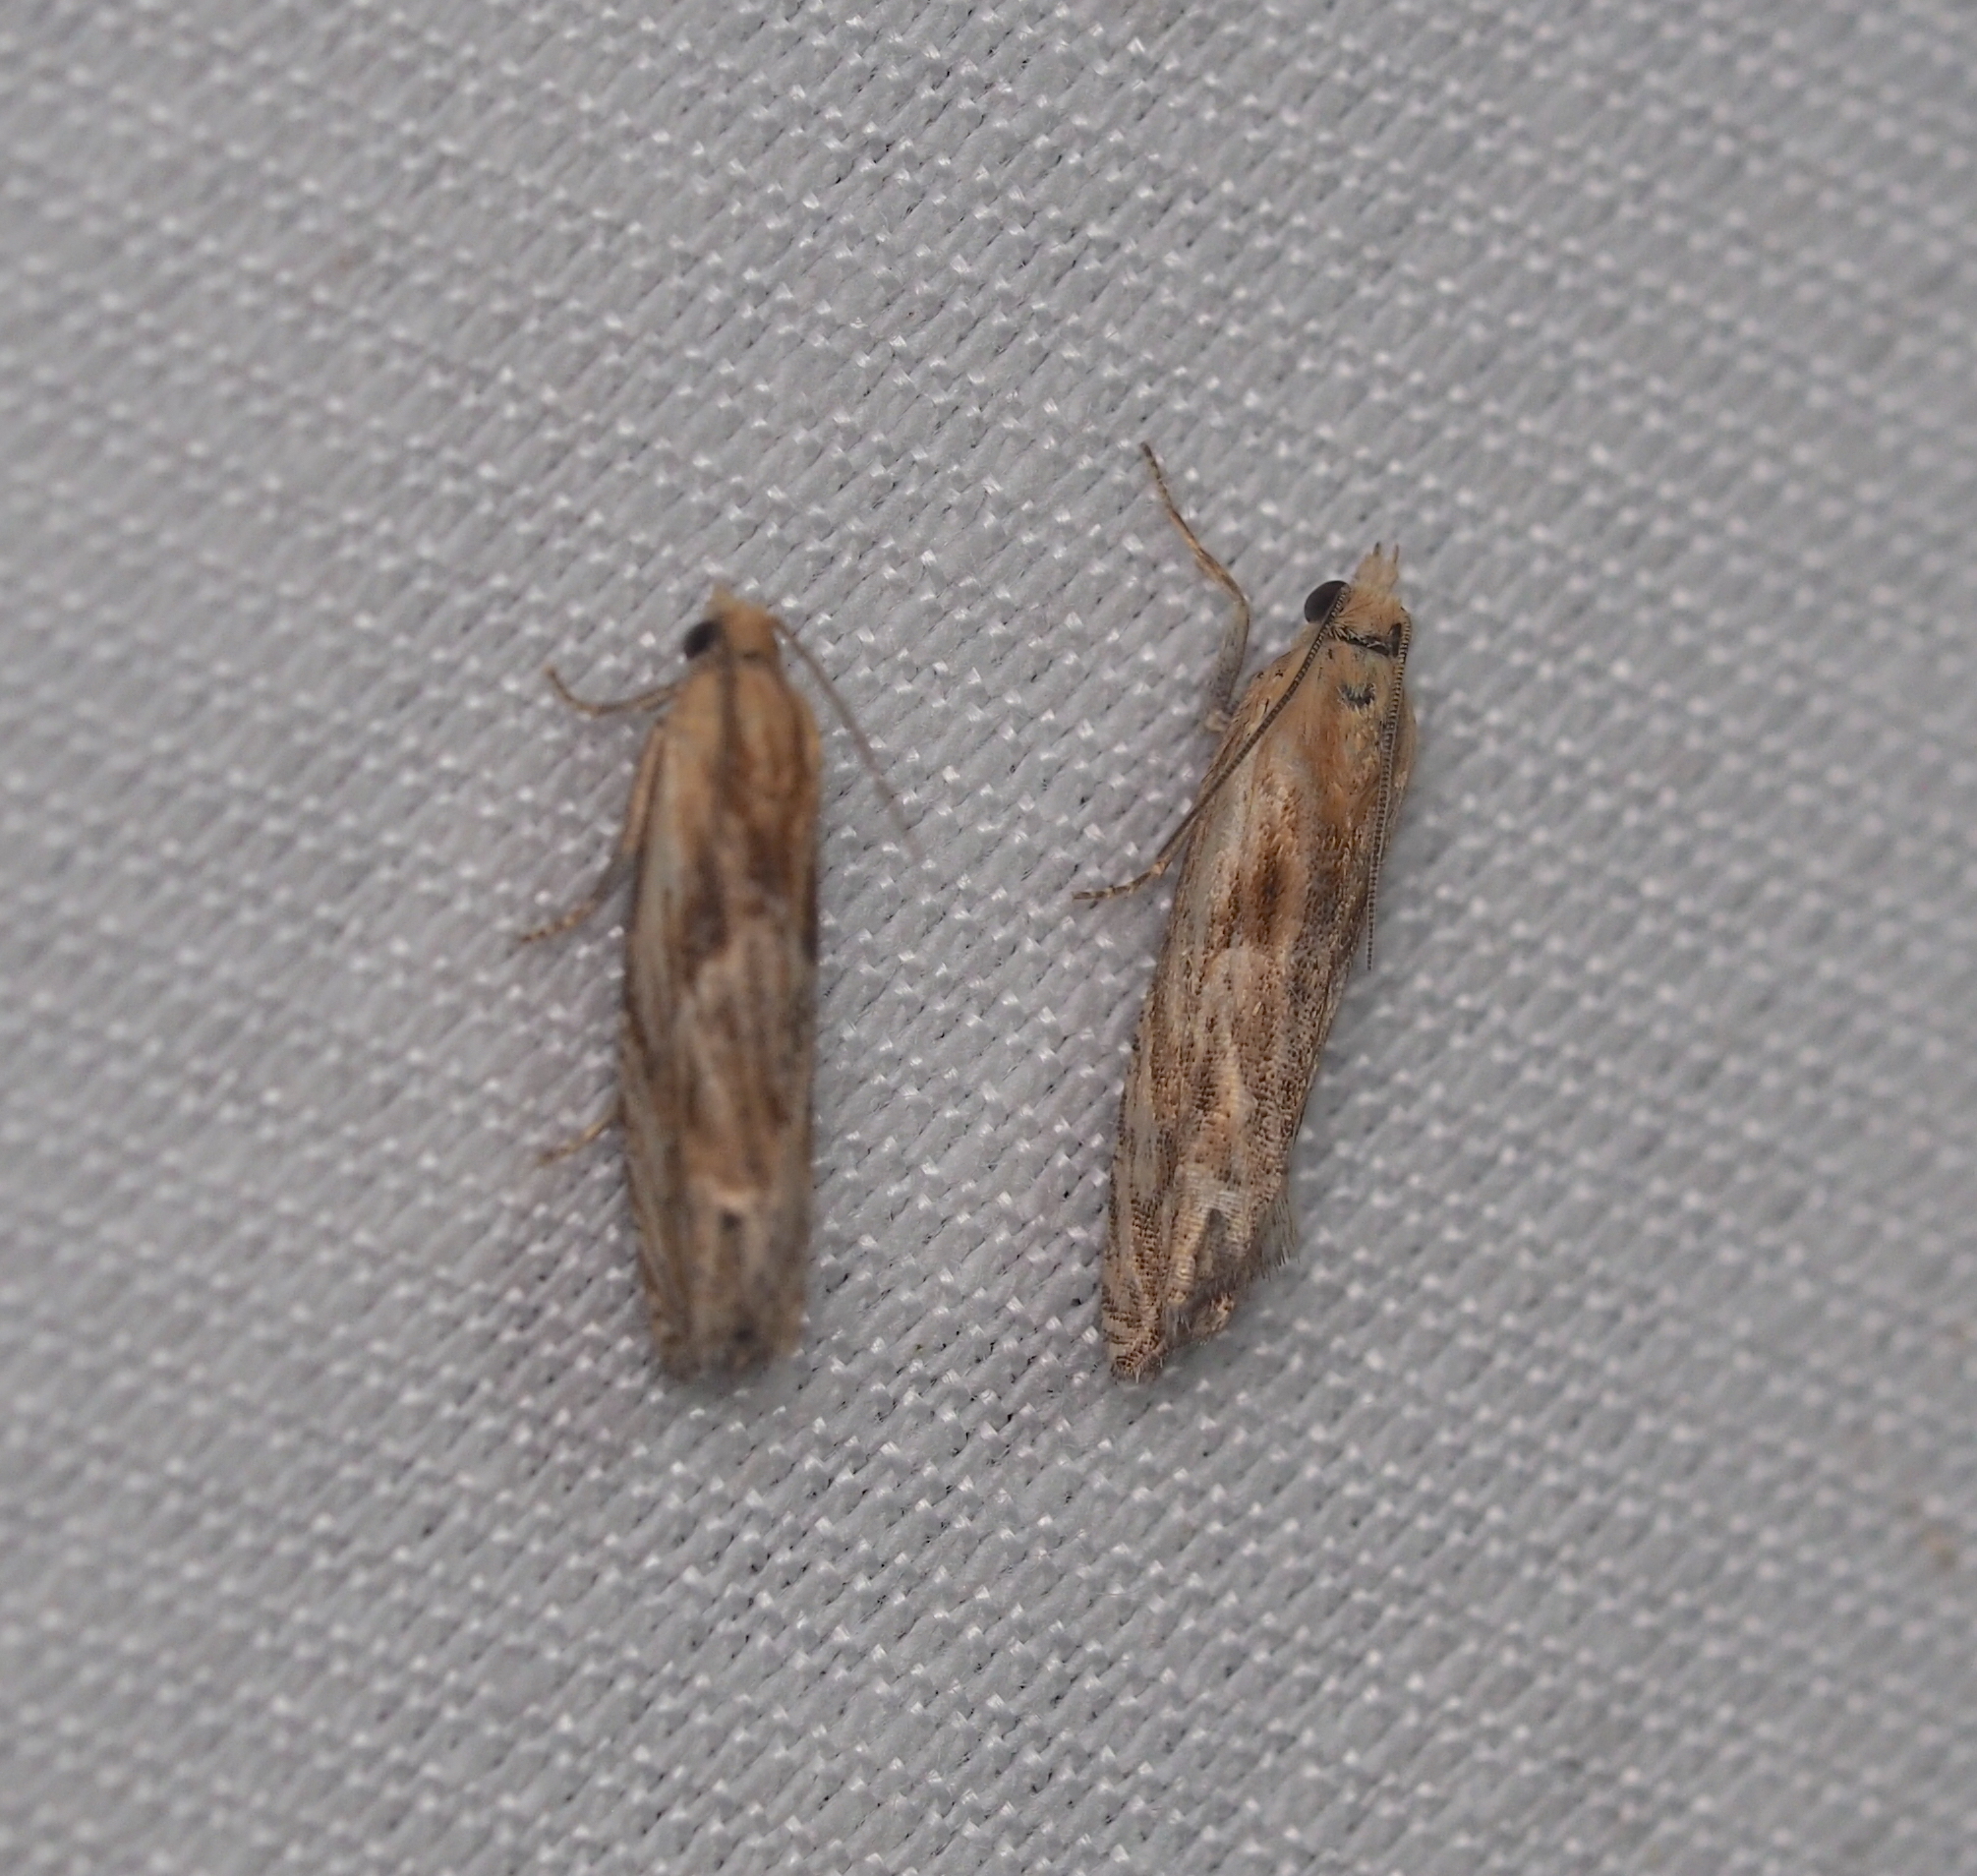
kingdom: Animalia
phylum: Arthropoda
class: Insecta
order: Lepidoptera
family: Tortricidae
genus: Eucosma
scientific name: Eucosma cana
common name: Hoary belle
